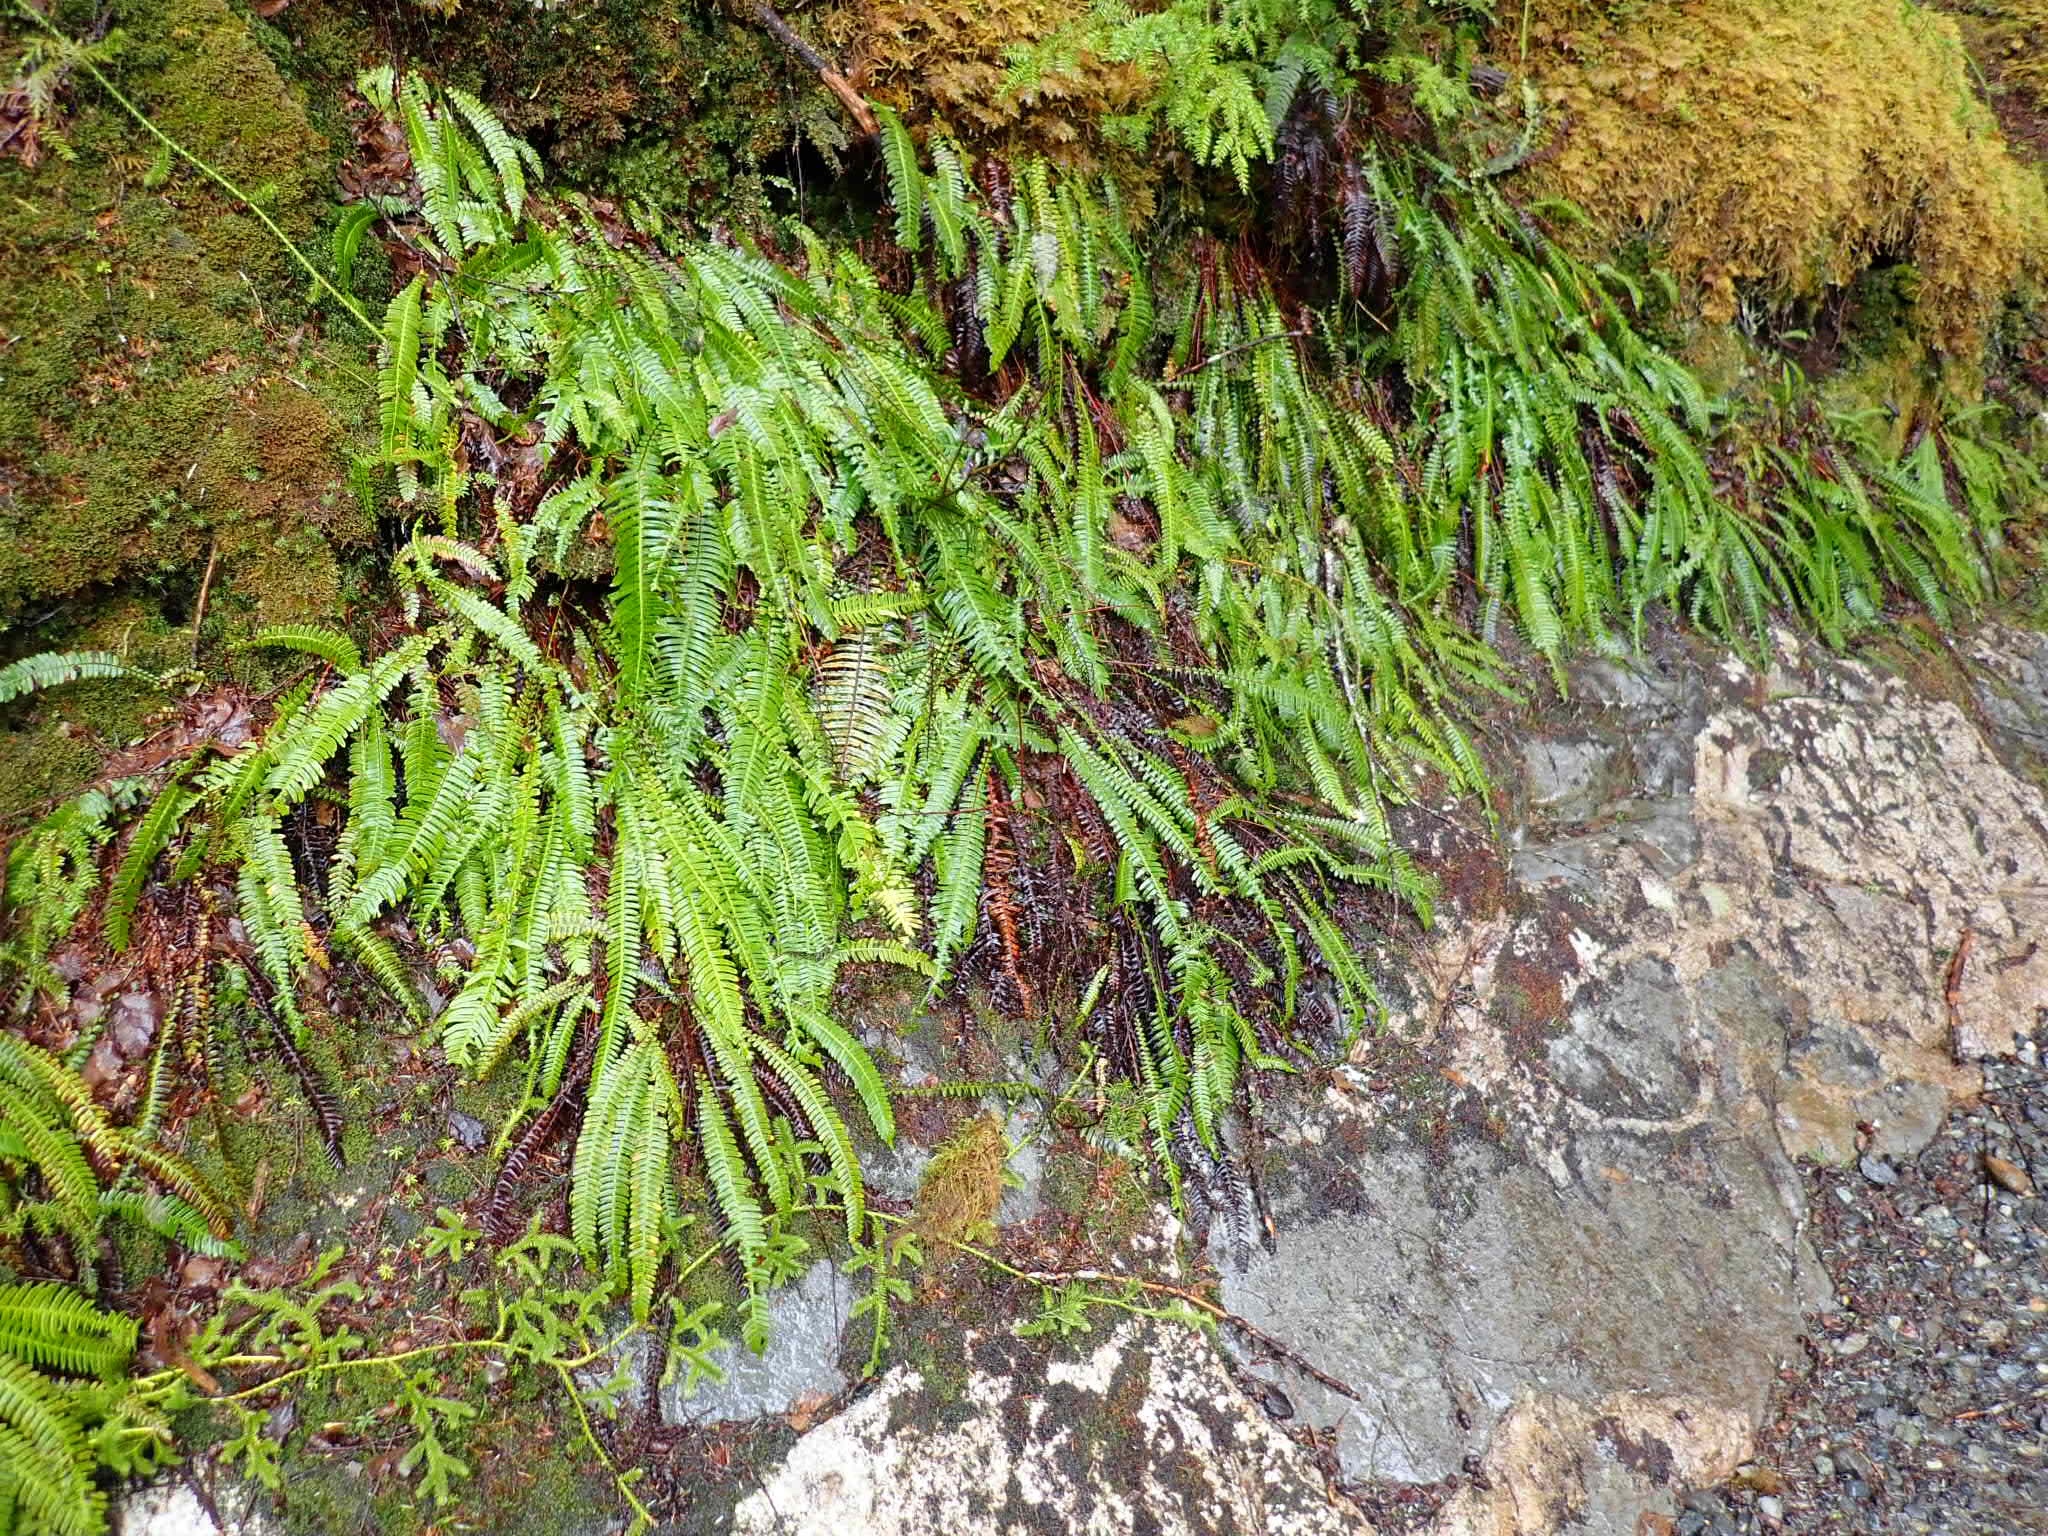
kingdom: Plantae
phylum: Tracheophyta
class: Polypodiopsida
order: Polypodiales
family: Blechnaceae
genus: Struthiopteris
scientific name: Struthiopteris spicant
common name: Deer fern
